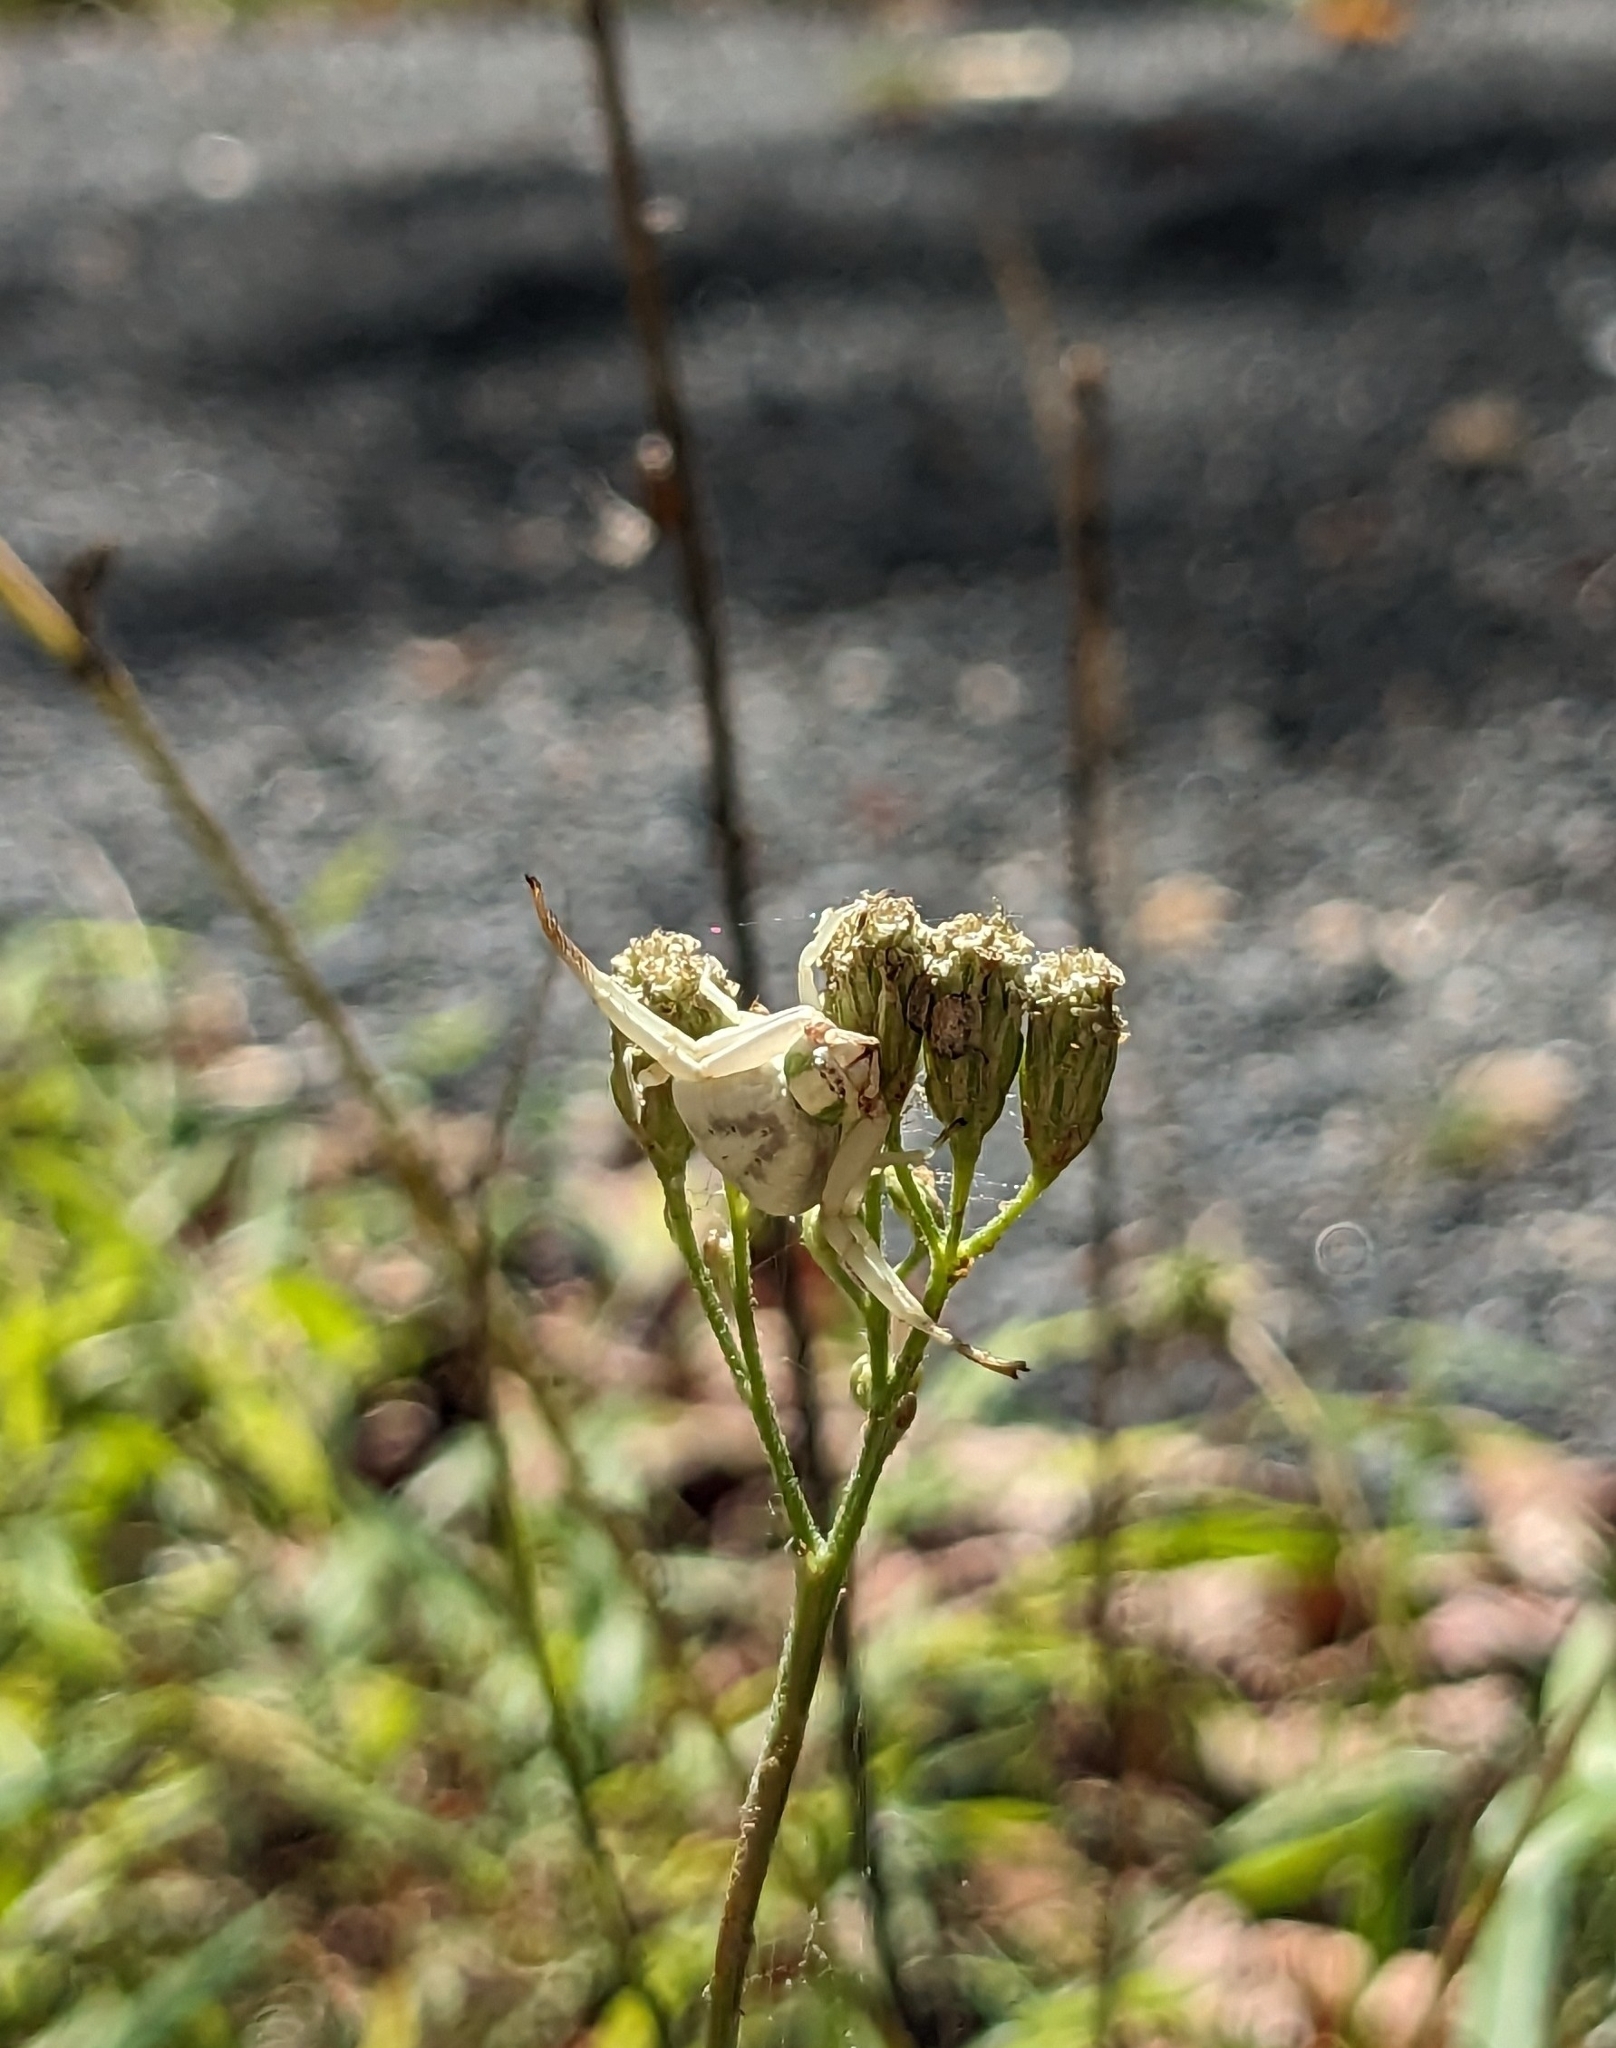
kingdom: Animalia
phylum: Arthropoda
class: Arachnida
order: Araneae
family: Thomisidae
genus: Misumenoides
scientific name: Misumenoides formosipes
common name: White-banded crab spider
